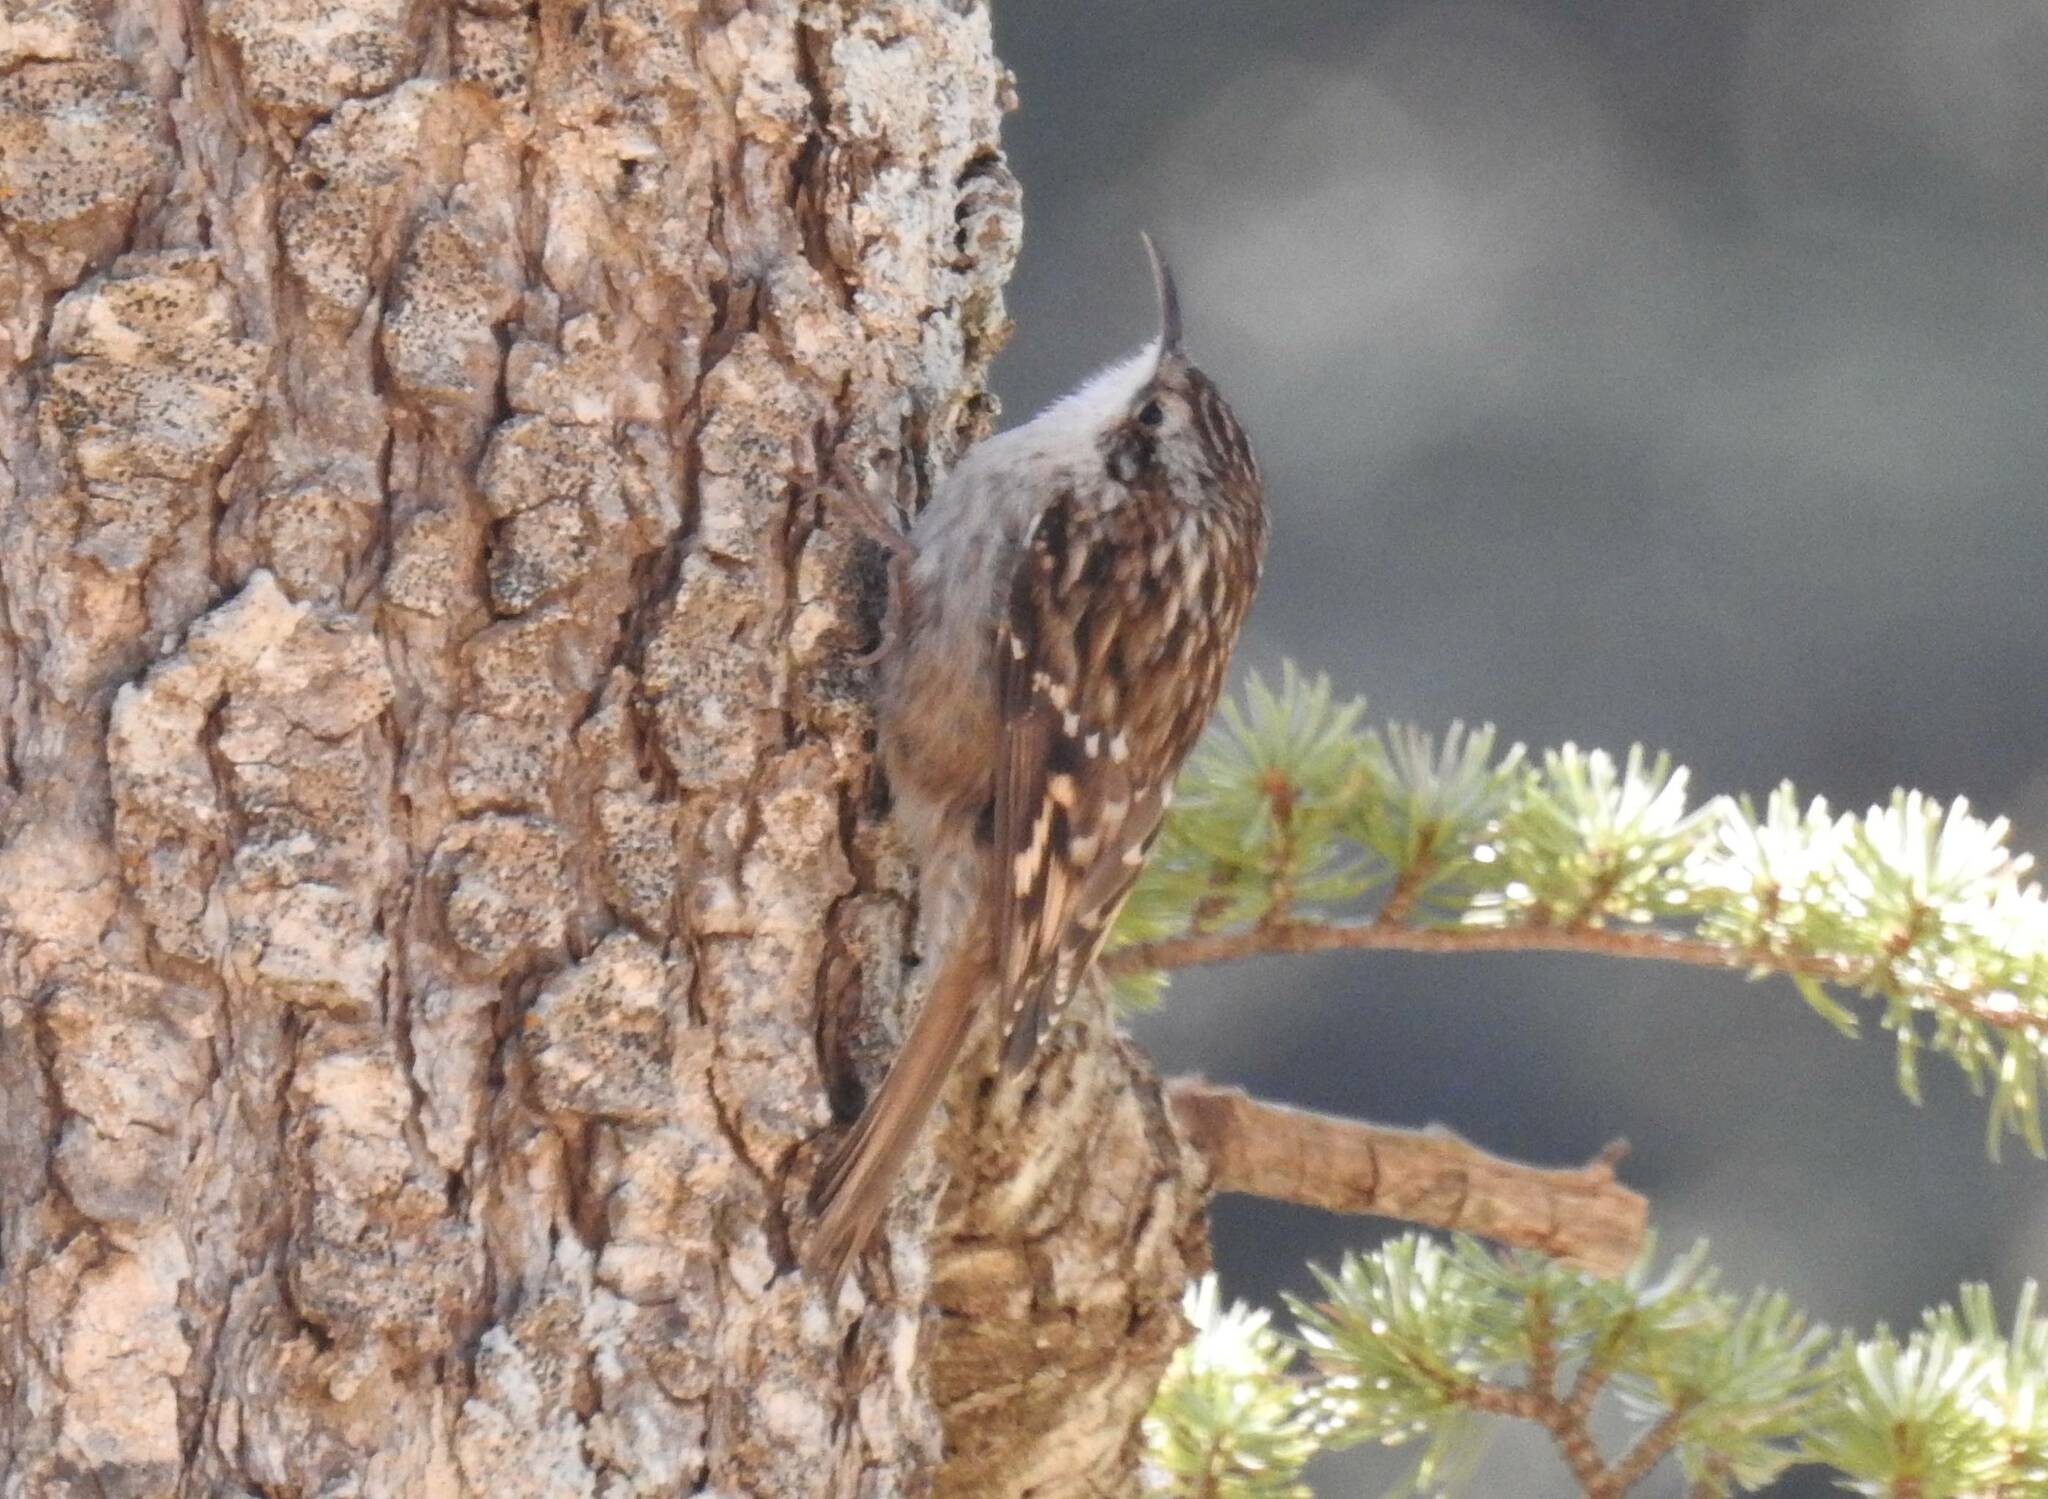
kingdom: Animalia
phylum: Chordata
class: Aves
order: Passeriformes
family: Certhiidae
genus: Certhia
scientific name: Certhia brachydactyla
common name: Short-toed treecreeper
